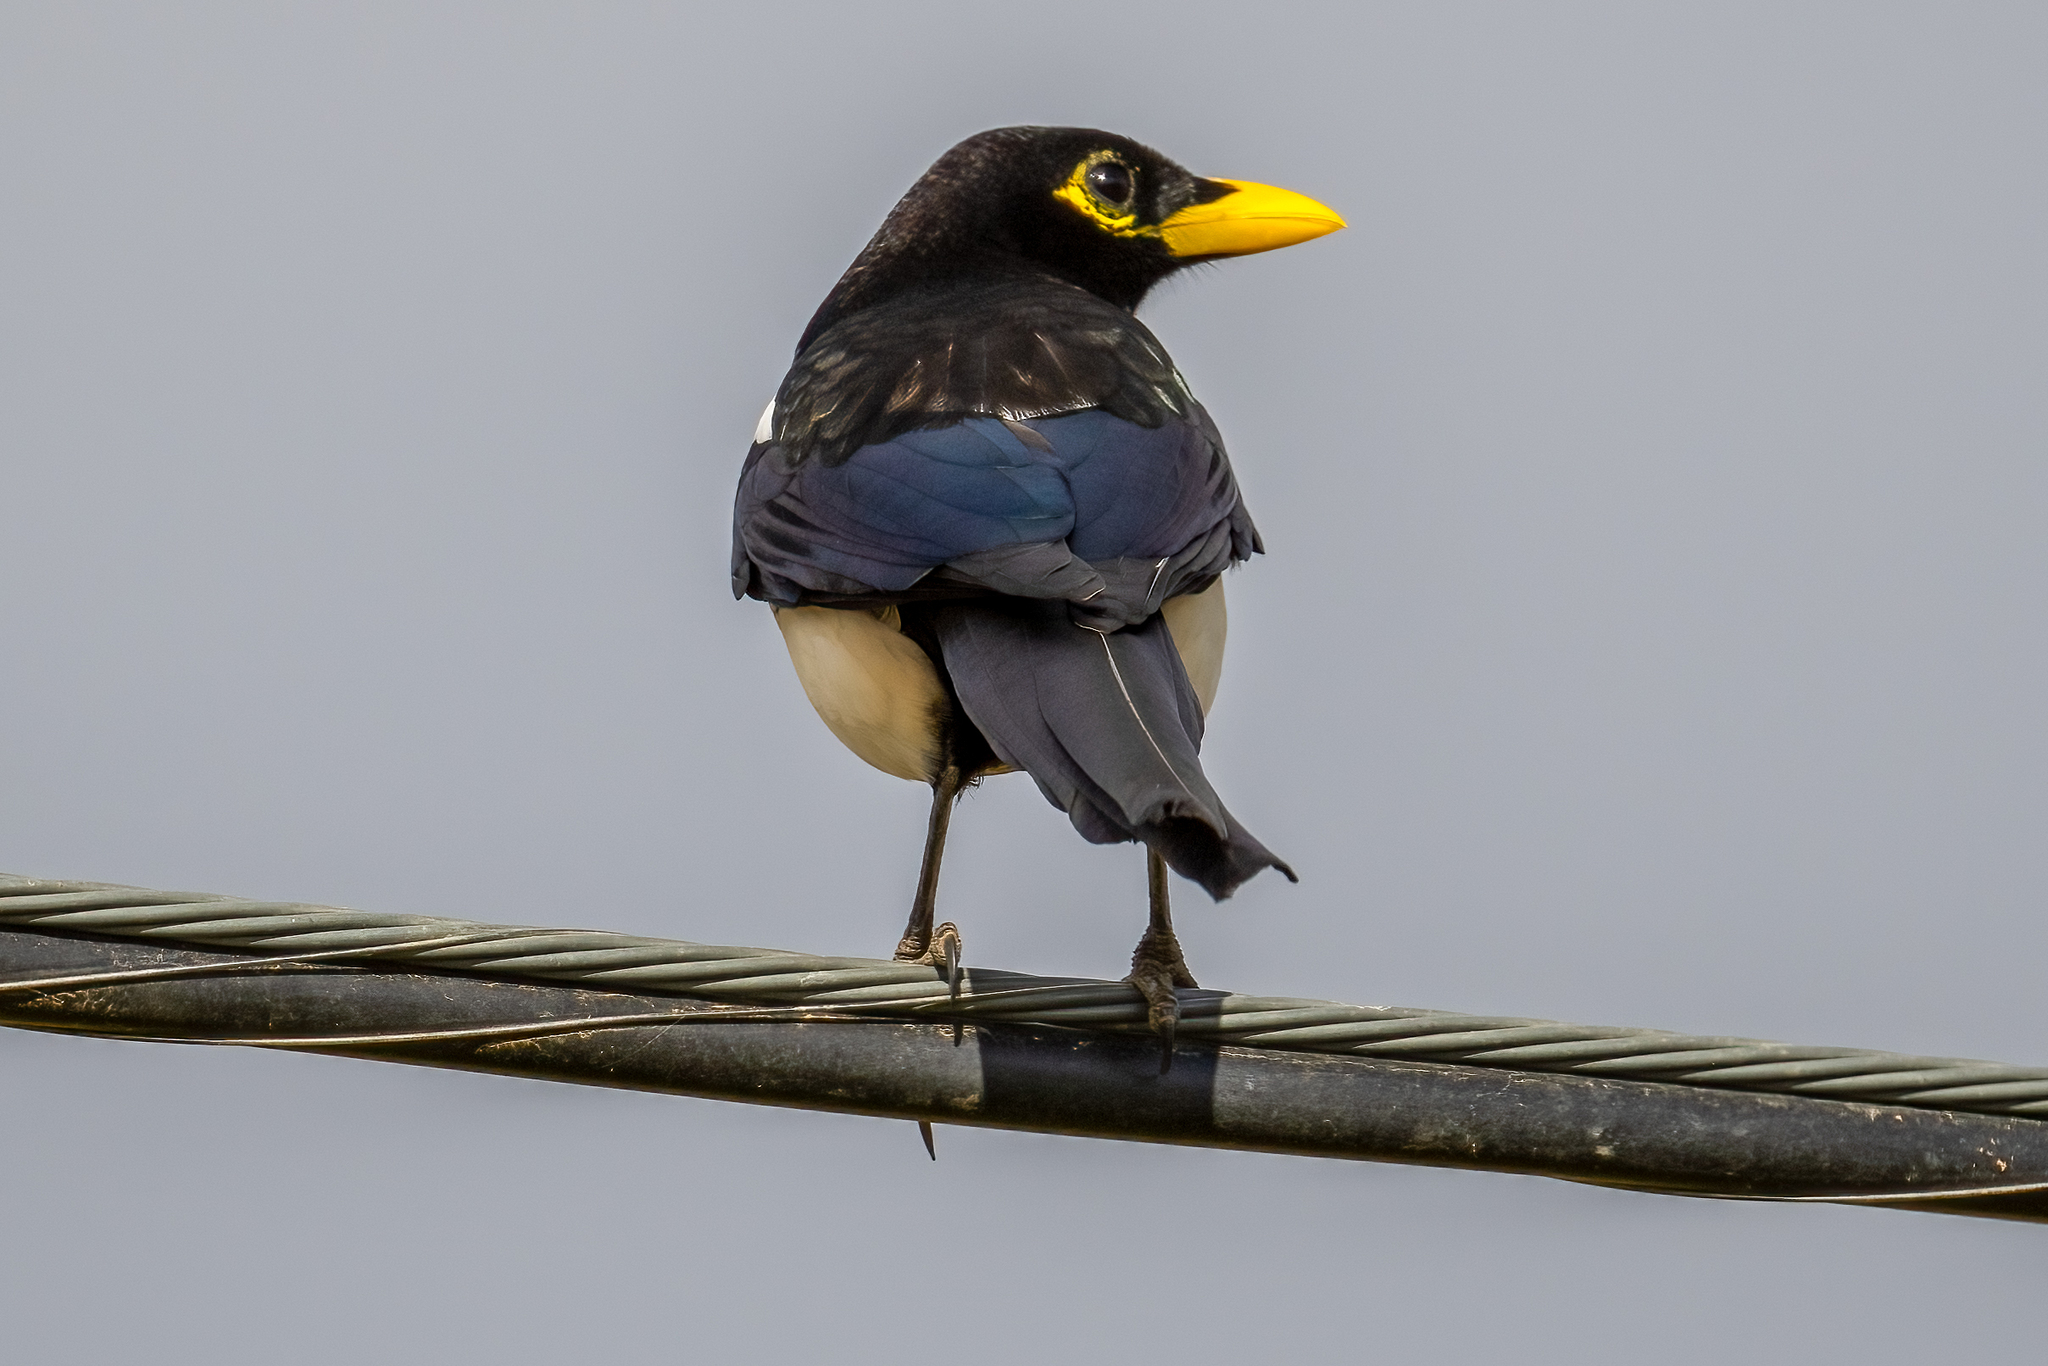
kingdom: Animalia
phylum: Chordata
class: Aves
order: Passeriformes
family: Corvidae
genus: Pica
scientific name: Pica nuttalli
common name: Yellow-billed magpie
